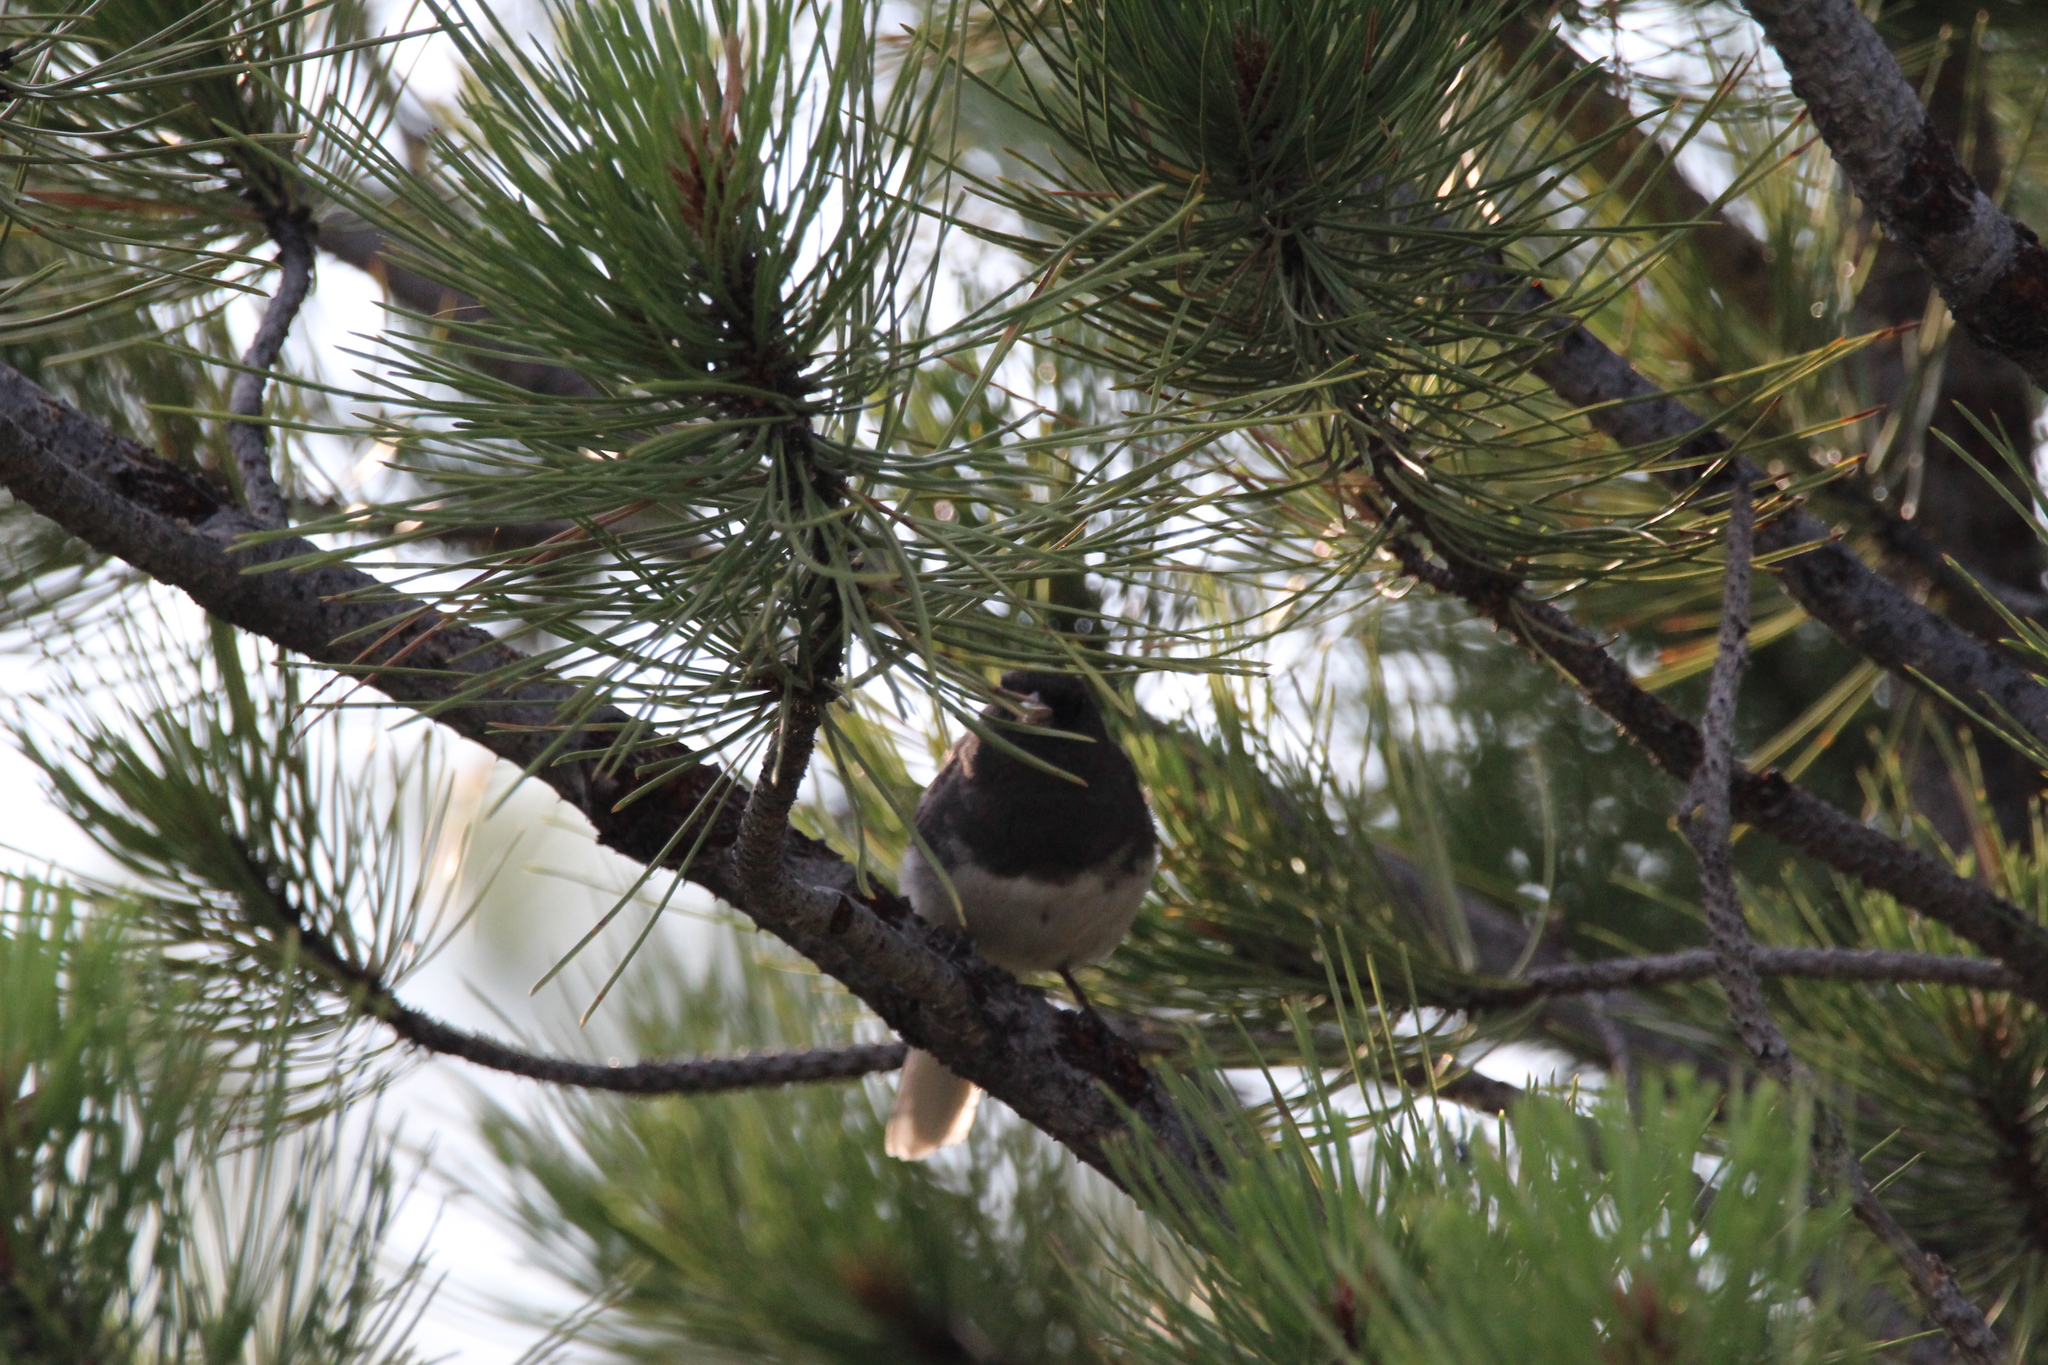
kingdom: Animalia
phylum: Chordata
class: Aves
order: Passeriformes
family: Passerellidae
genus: Junco
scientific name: Junco hyemalis
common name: Dark-eyed junco
